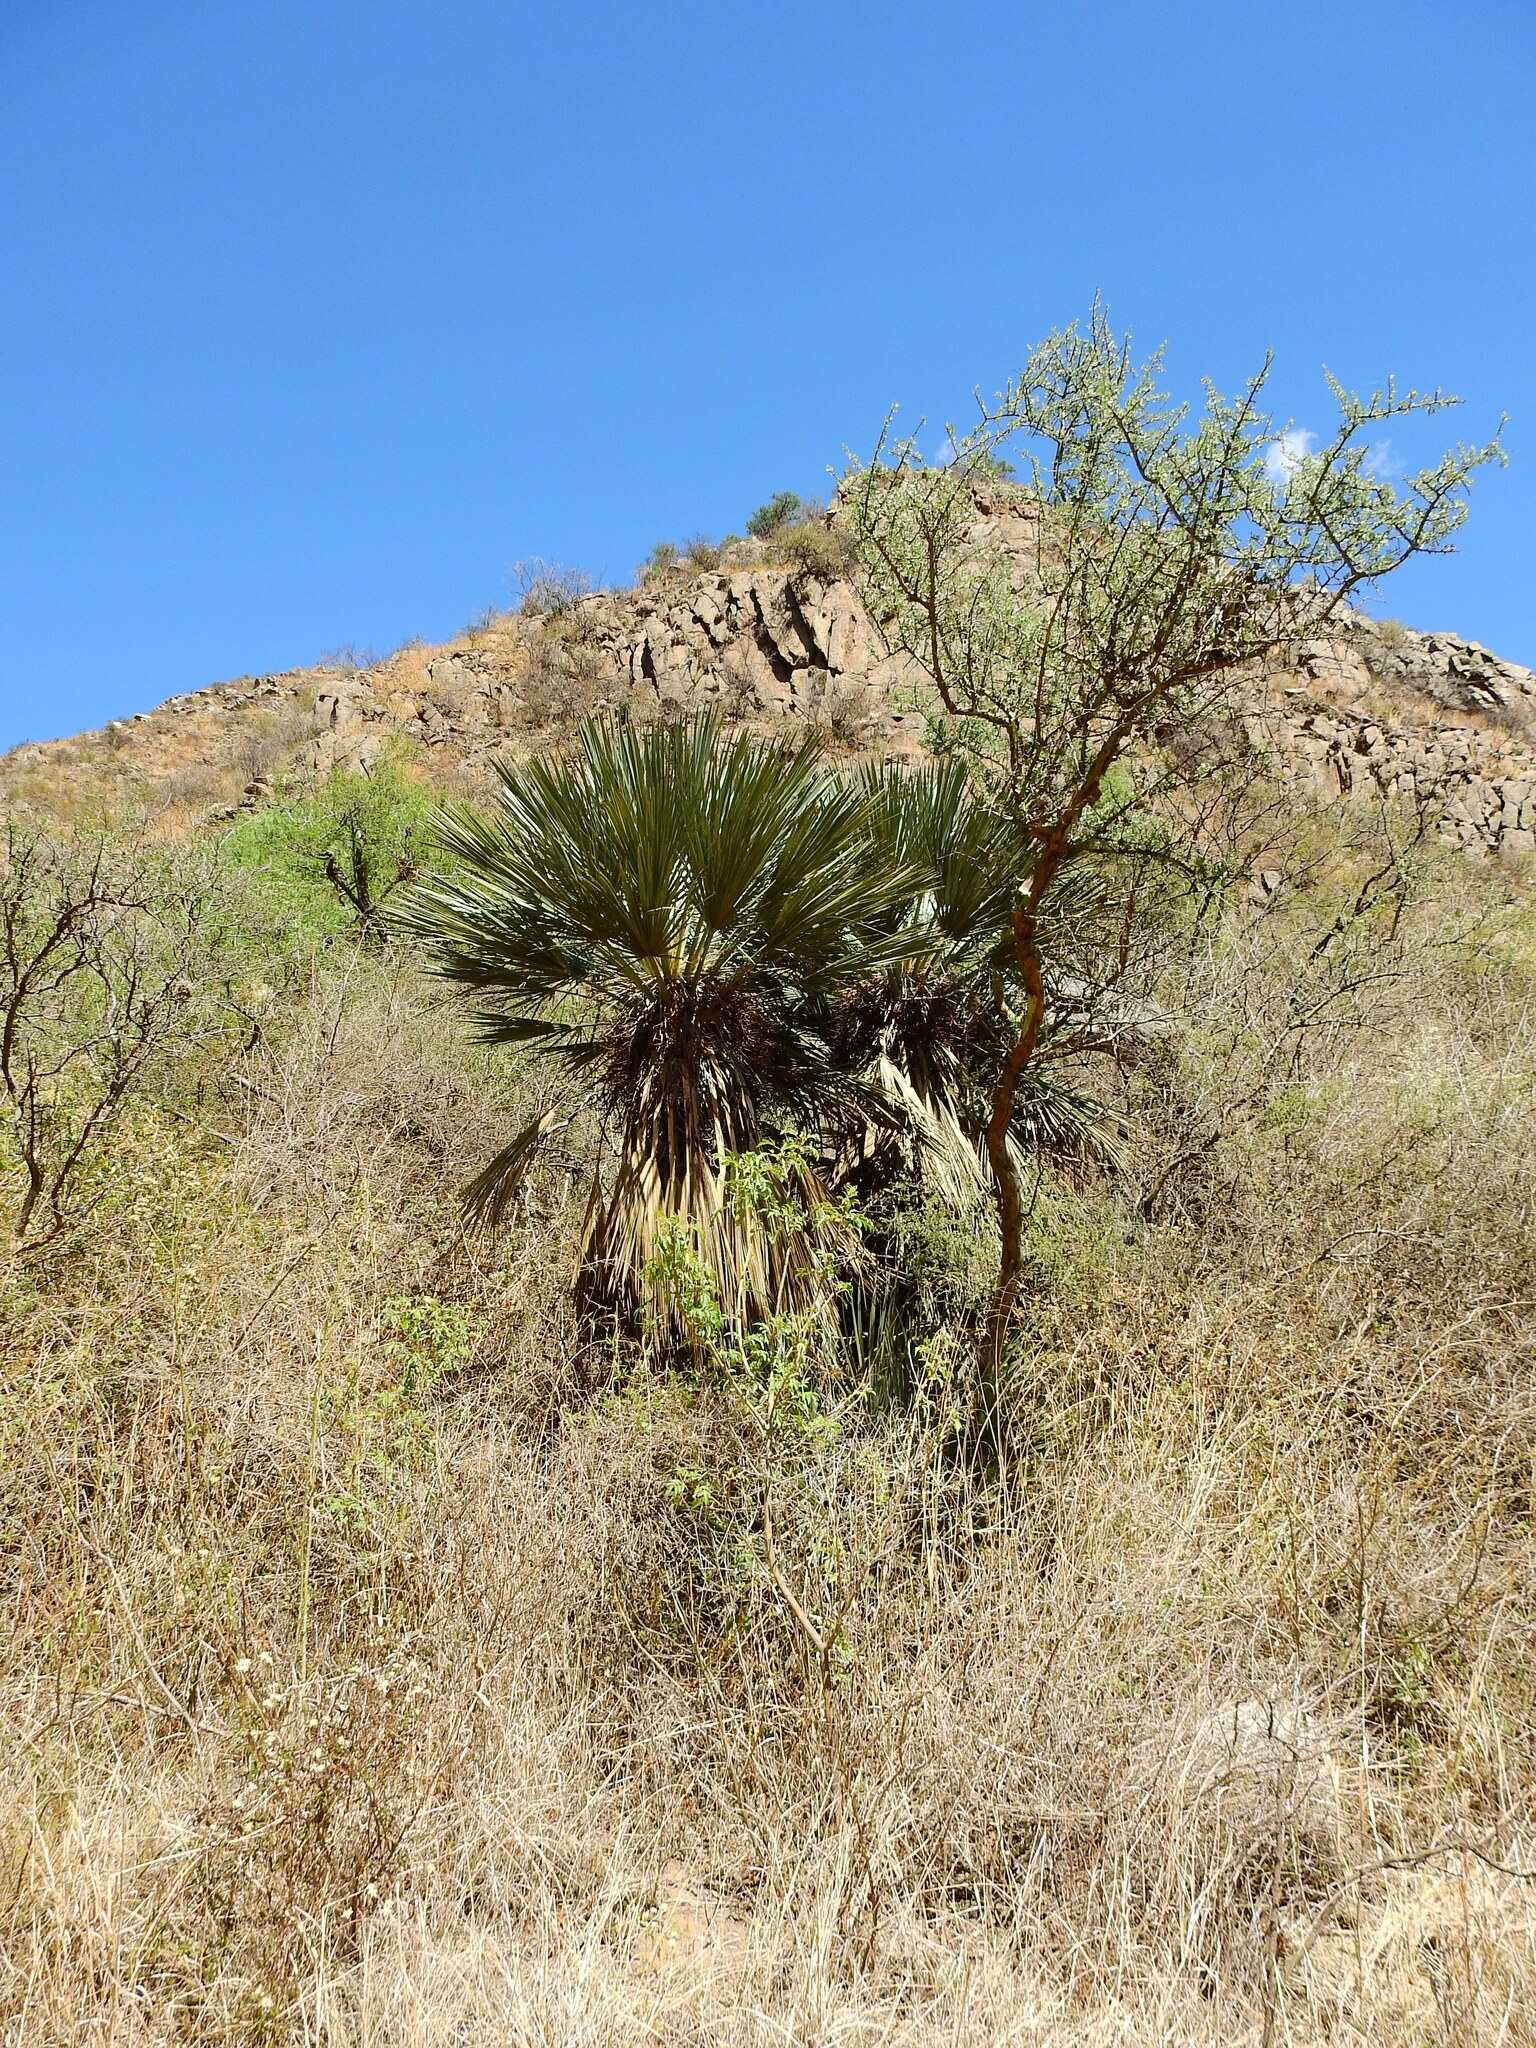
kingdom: Plantae
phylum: Tracheophyta
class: Liliopsida
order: Arecales
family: Arecaceae
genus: Trithrinax
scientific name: Trithrinax campestris
